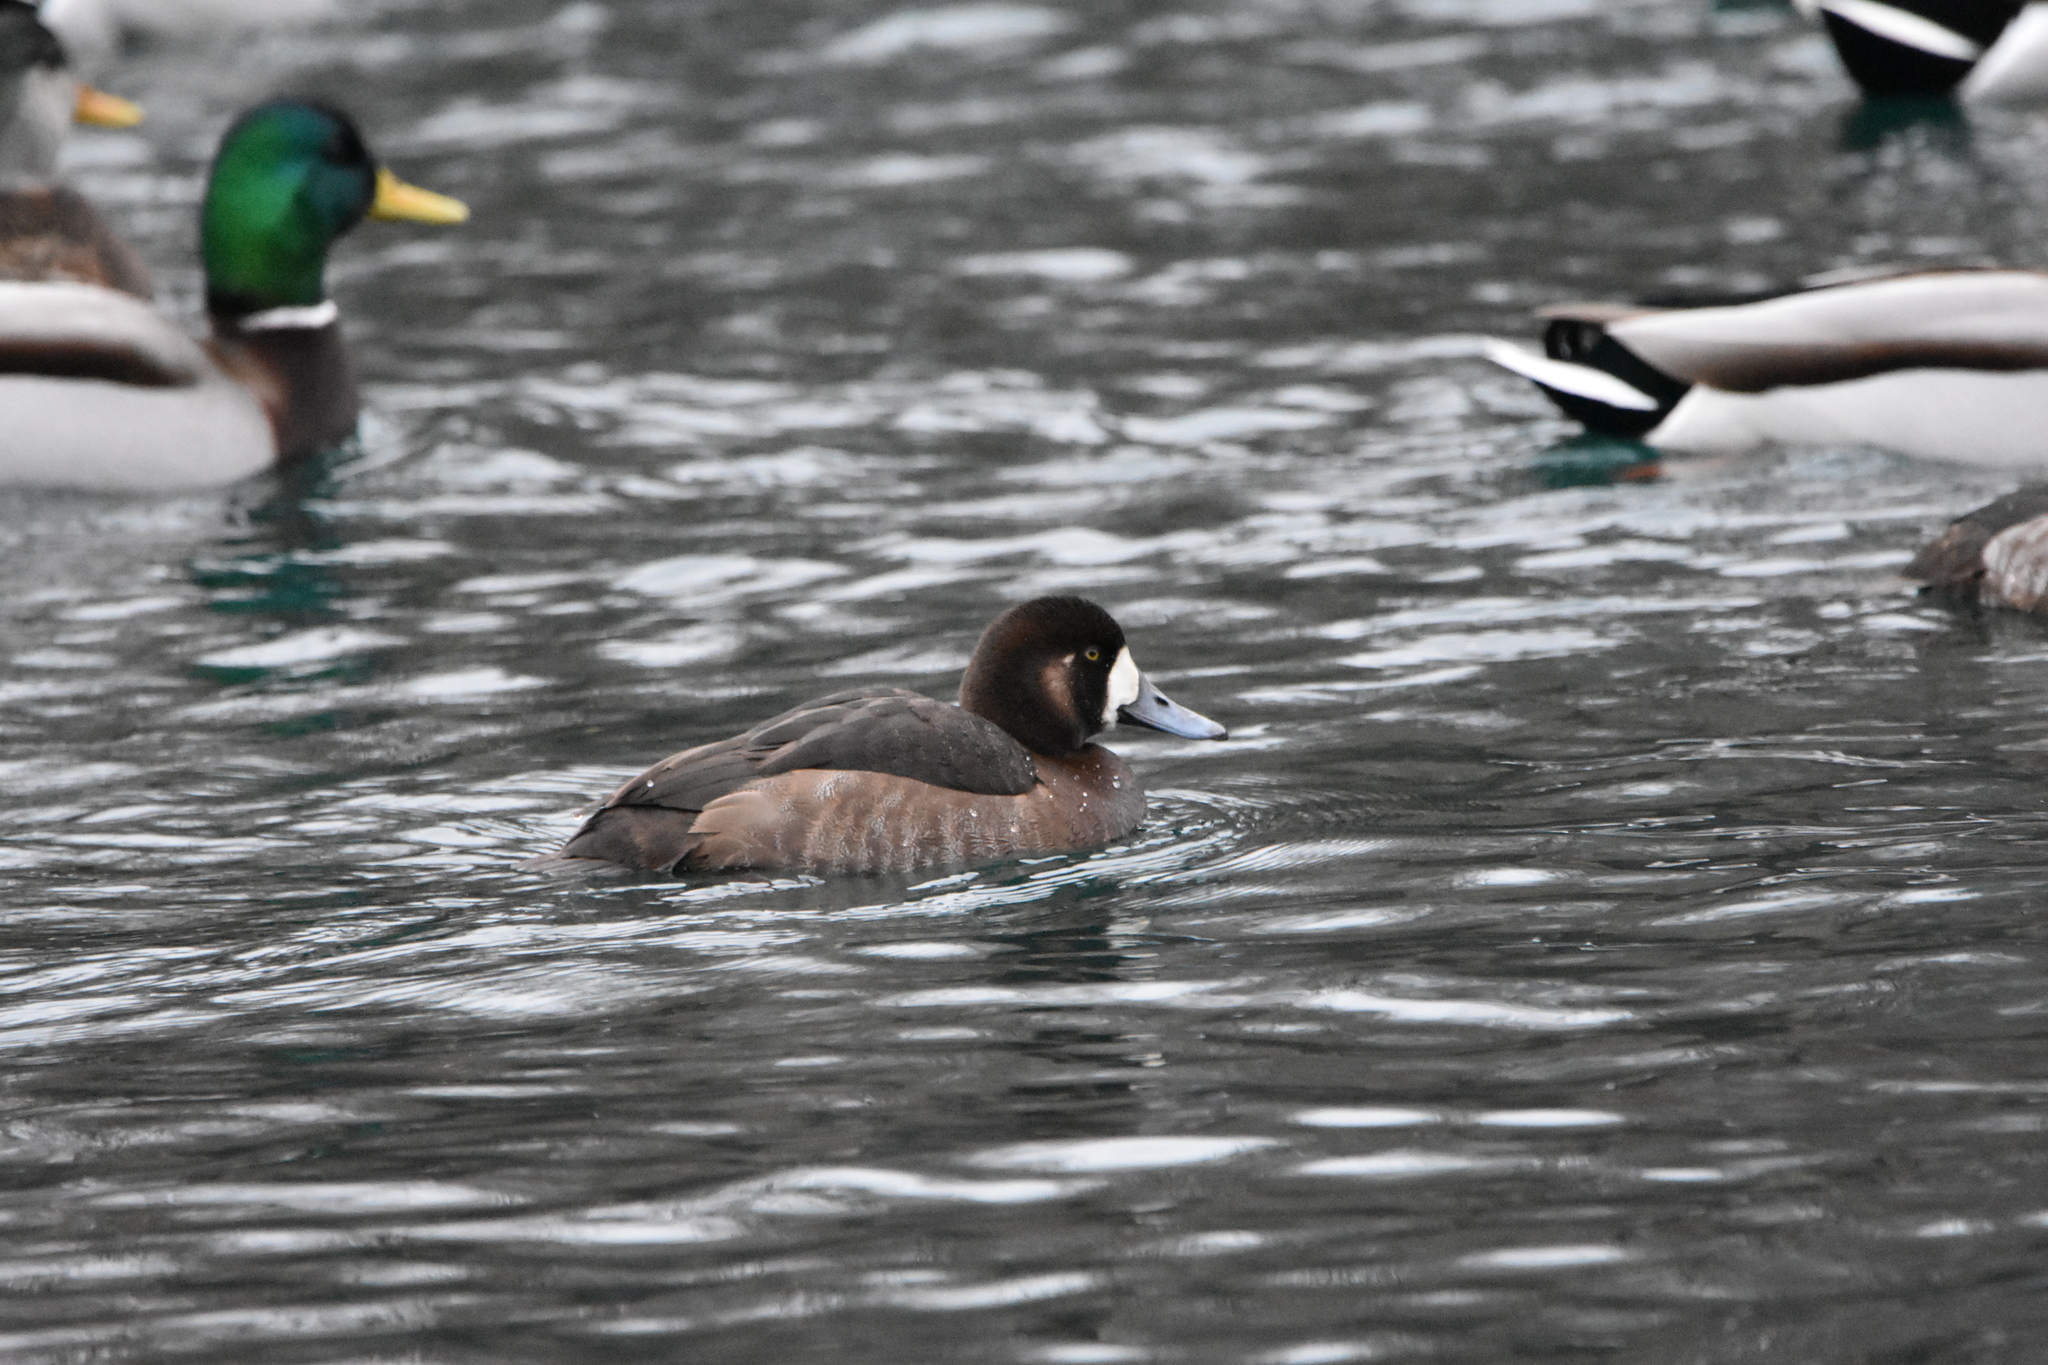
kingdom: Animalia
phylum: Chordata
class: Aves
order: Anseriformes
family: Anatidae
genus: Aythya
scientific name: Aythya marila
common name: Greater scaup
